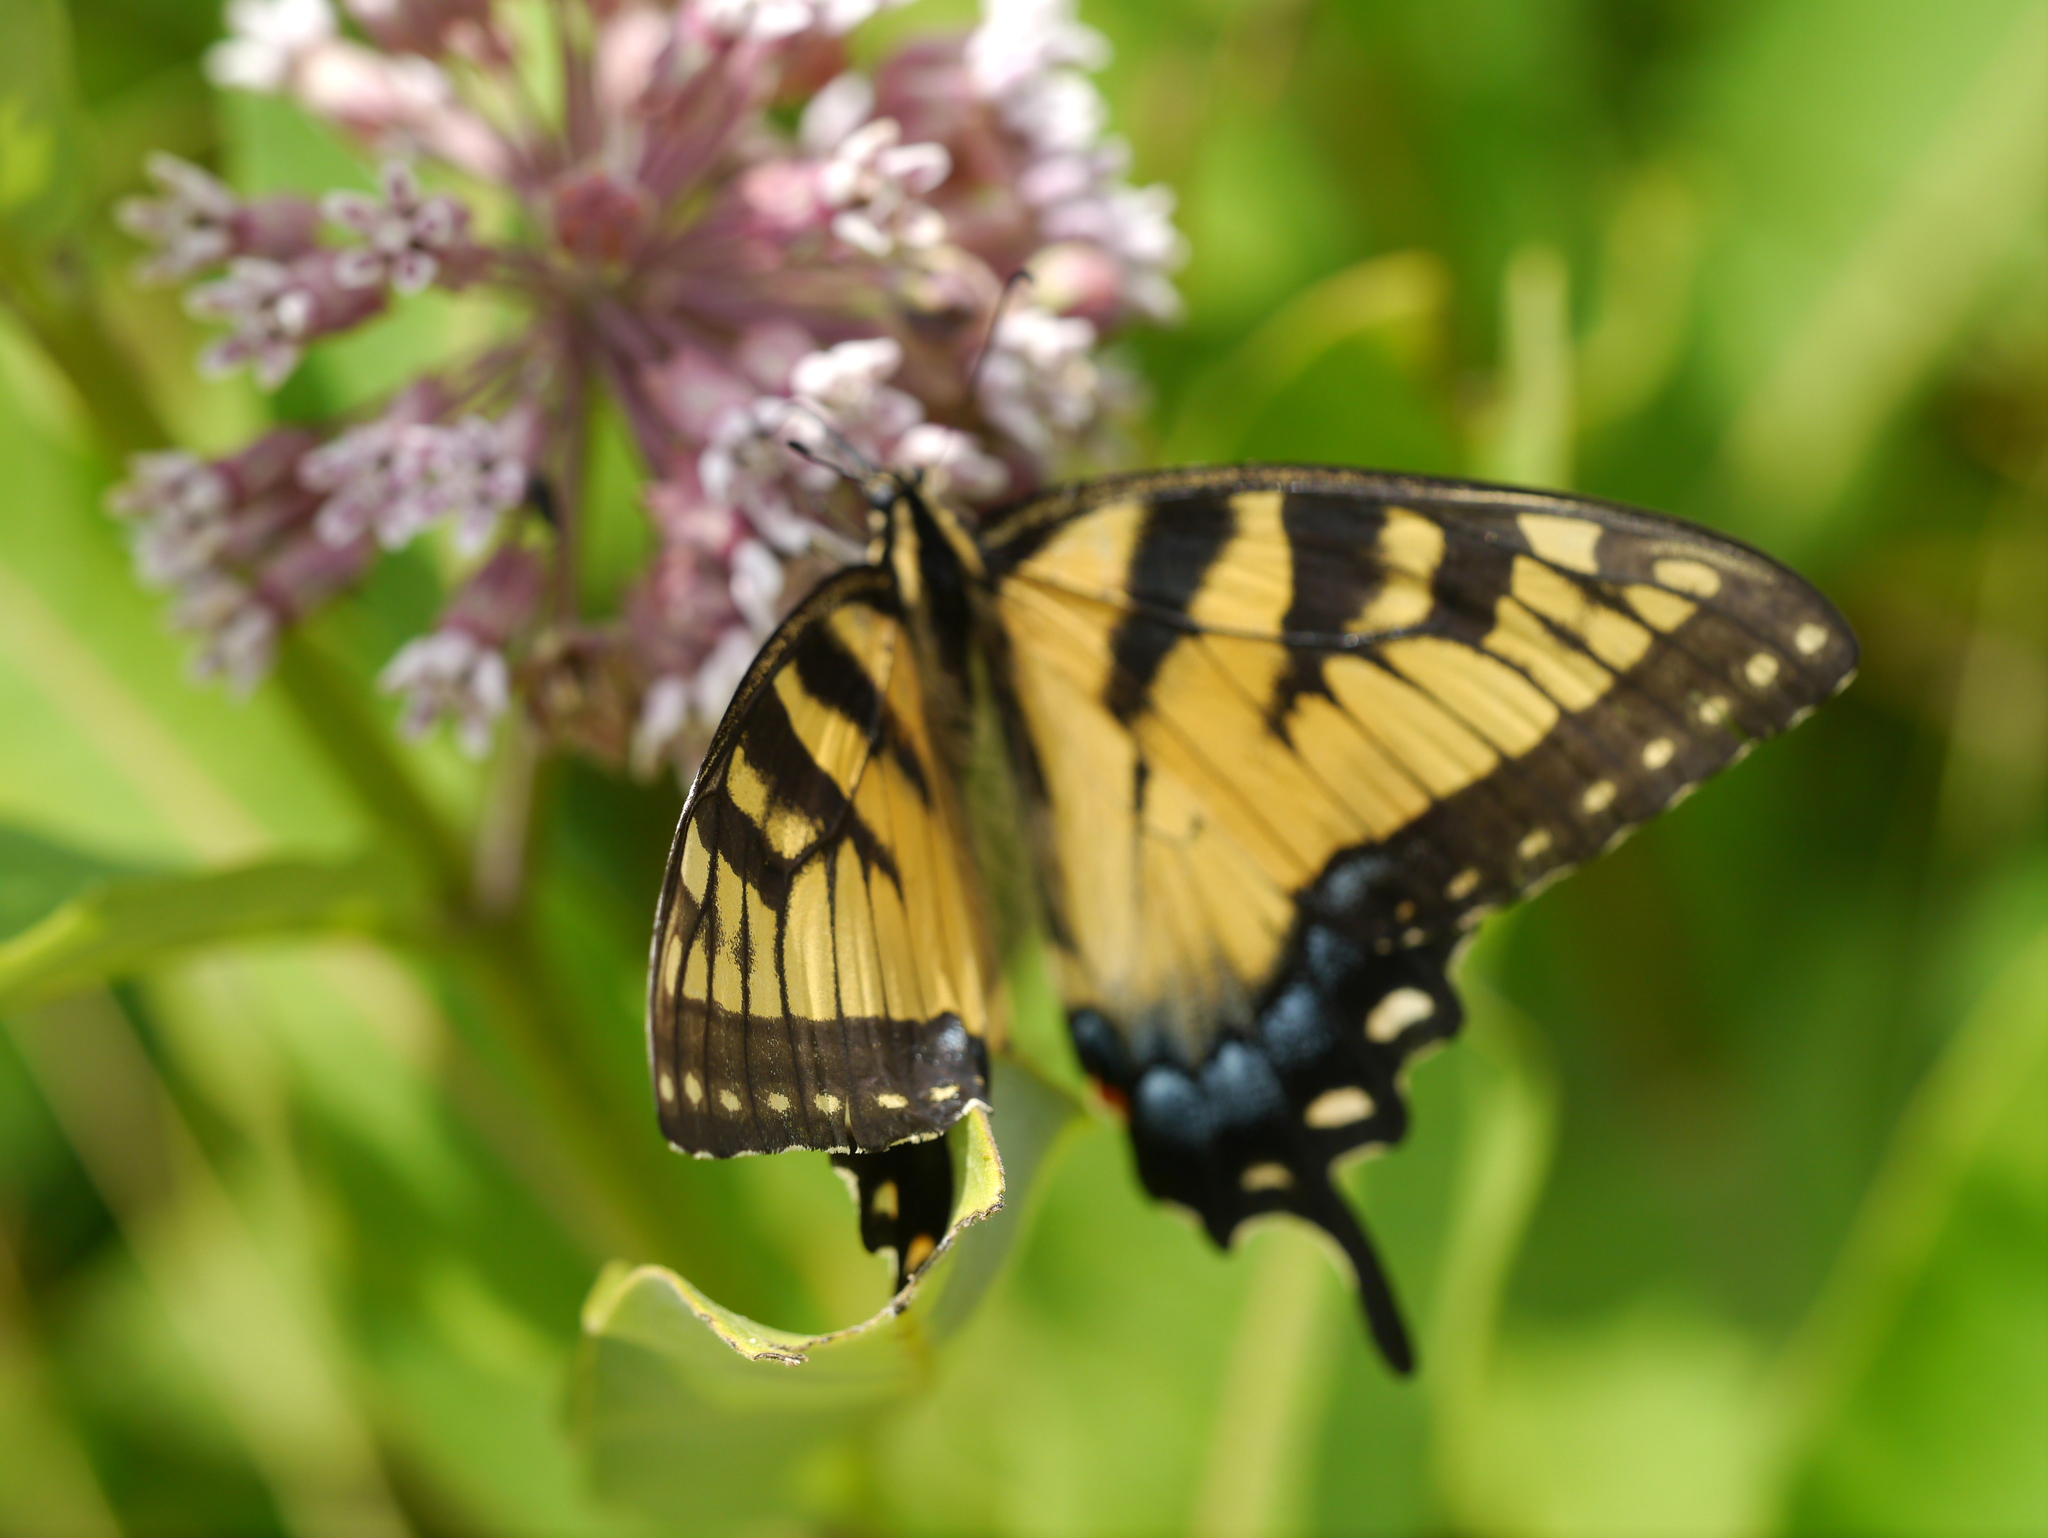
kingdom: Animalia
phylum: Arthropoda
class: Insecta
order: Lepidoptera
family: Papilionidae
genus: Papilio
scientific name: Papilio glaucus
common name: Tiger swallowtail
